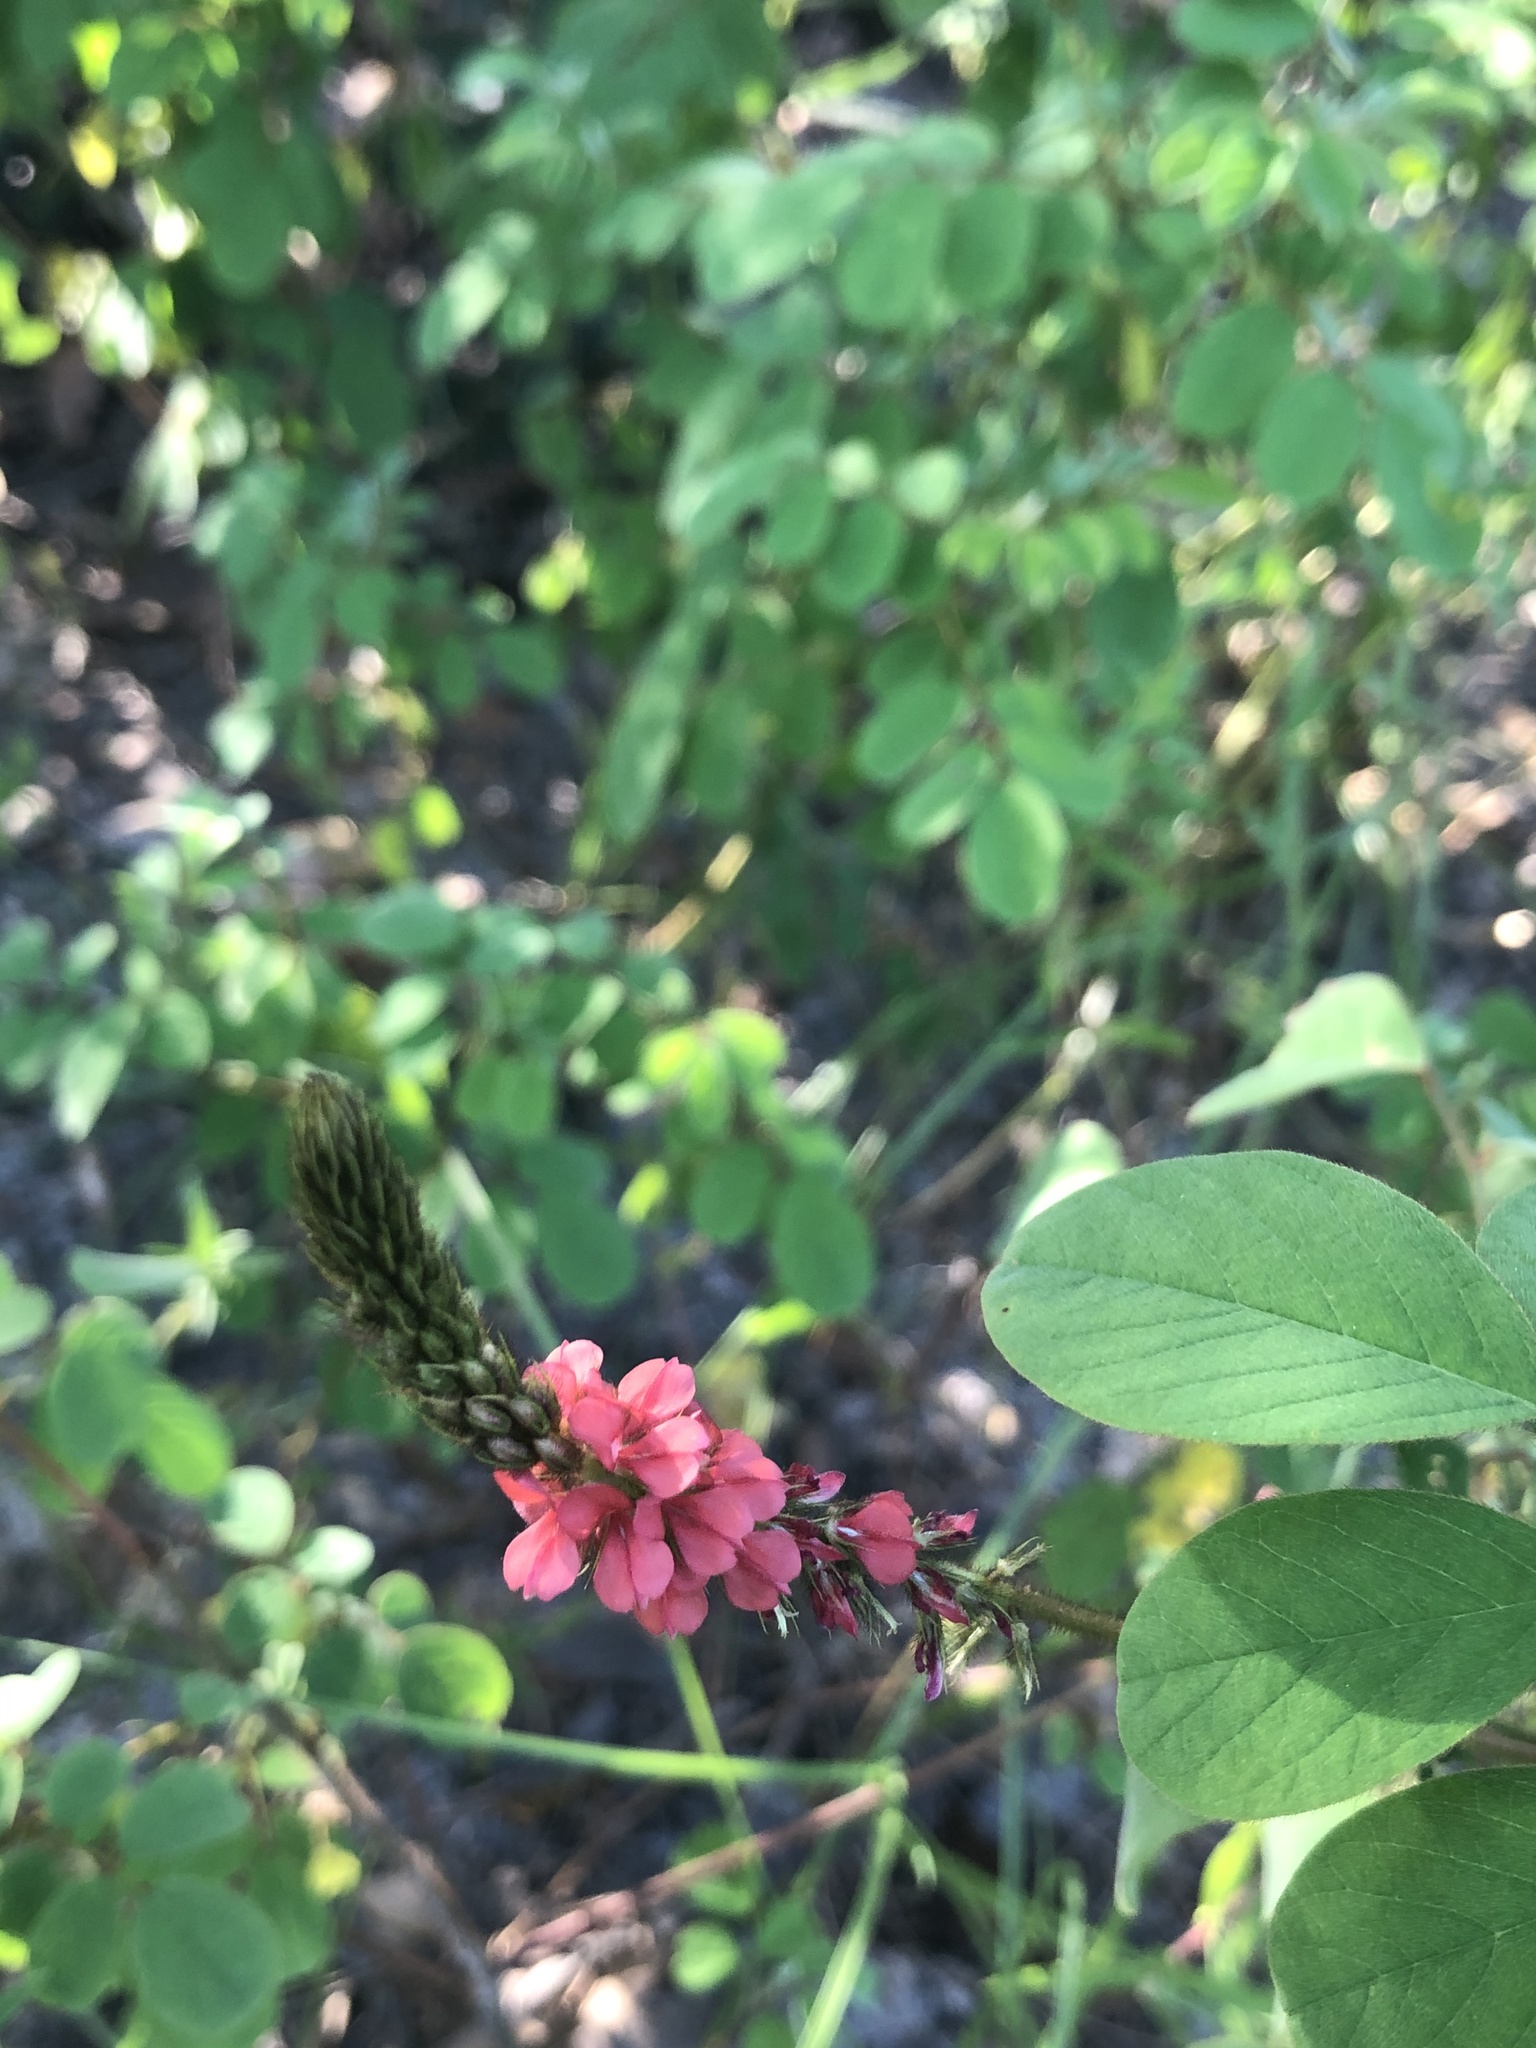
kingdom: Plantae
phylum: Tracheophyta
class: Magnoliopsida
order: Fabales
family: Fabaceae
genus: Indigofera
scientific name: Indigofera hirsuta
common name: Hairy indigo
